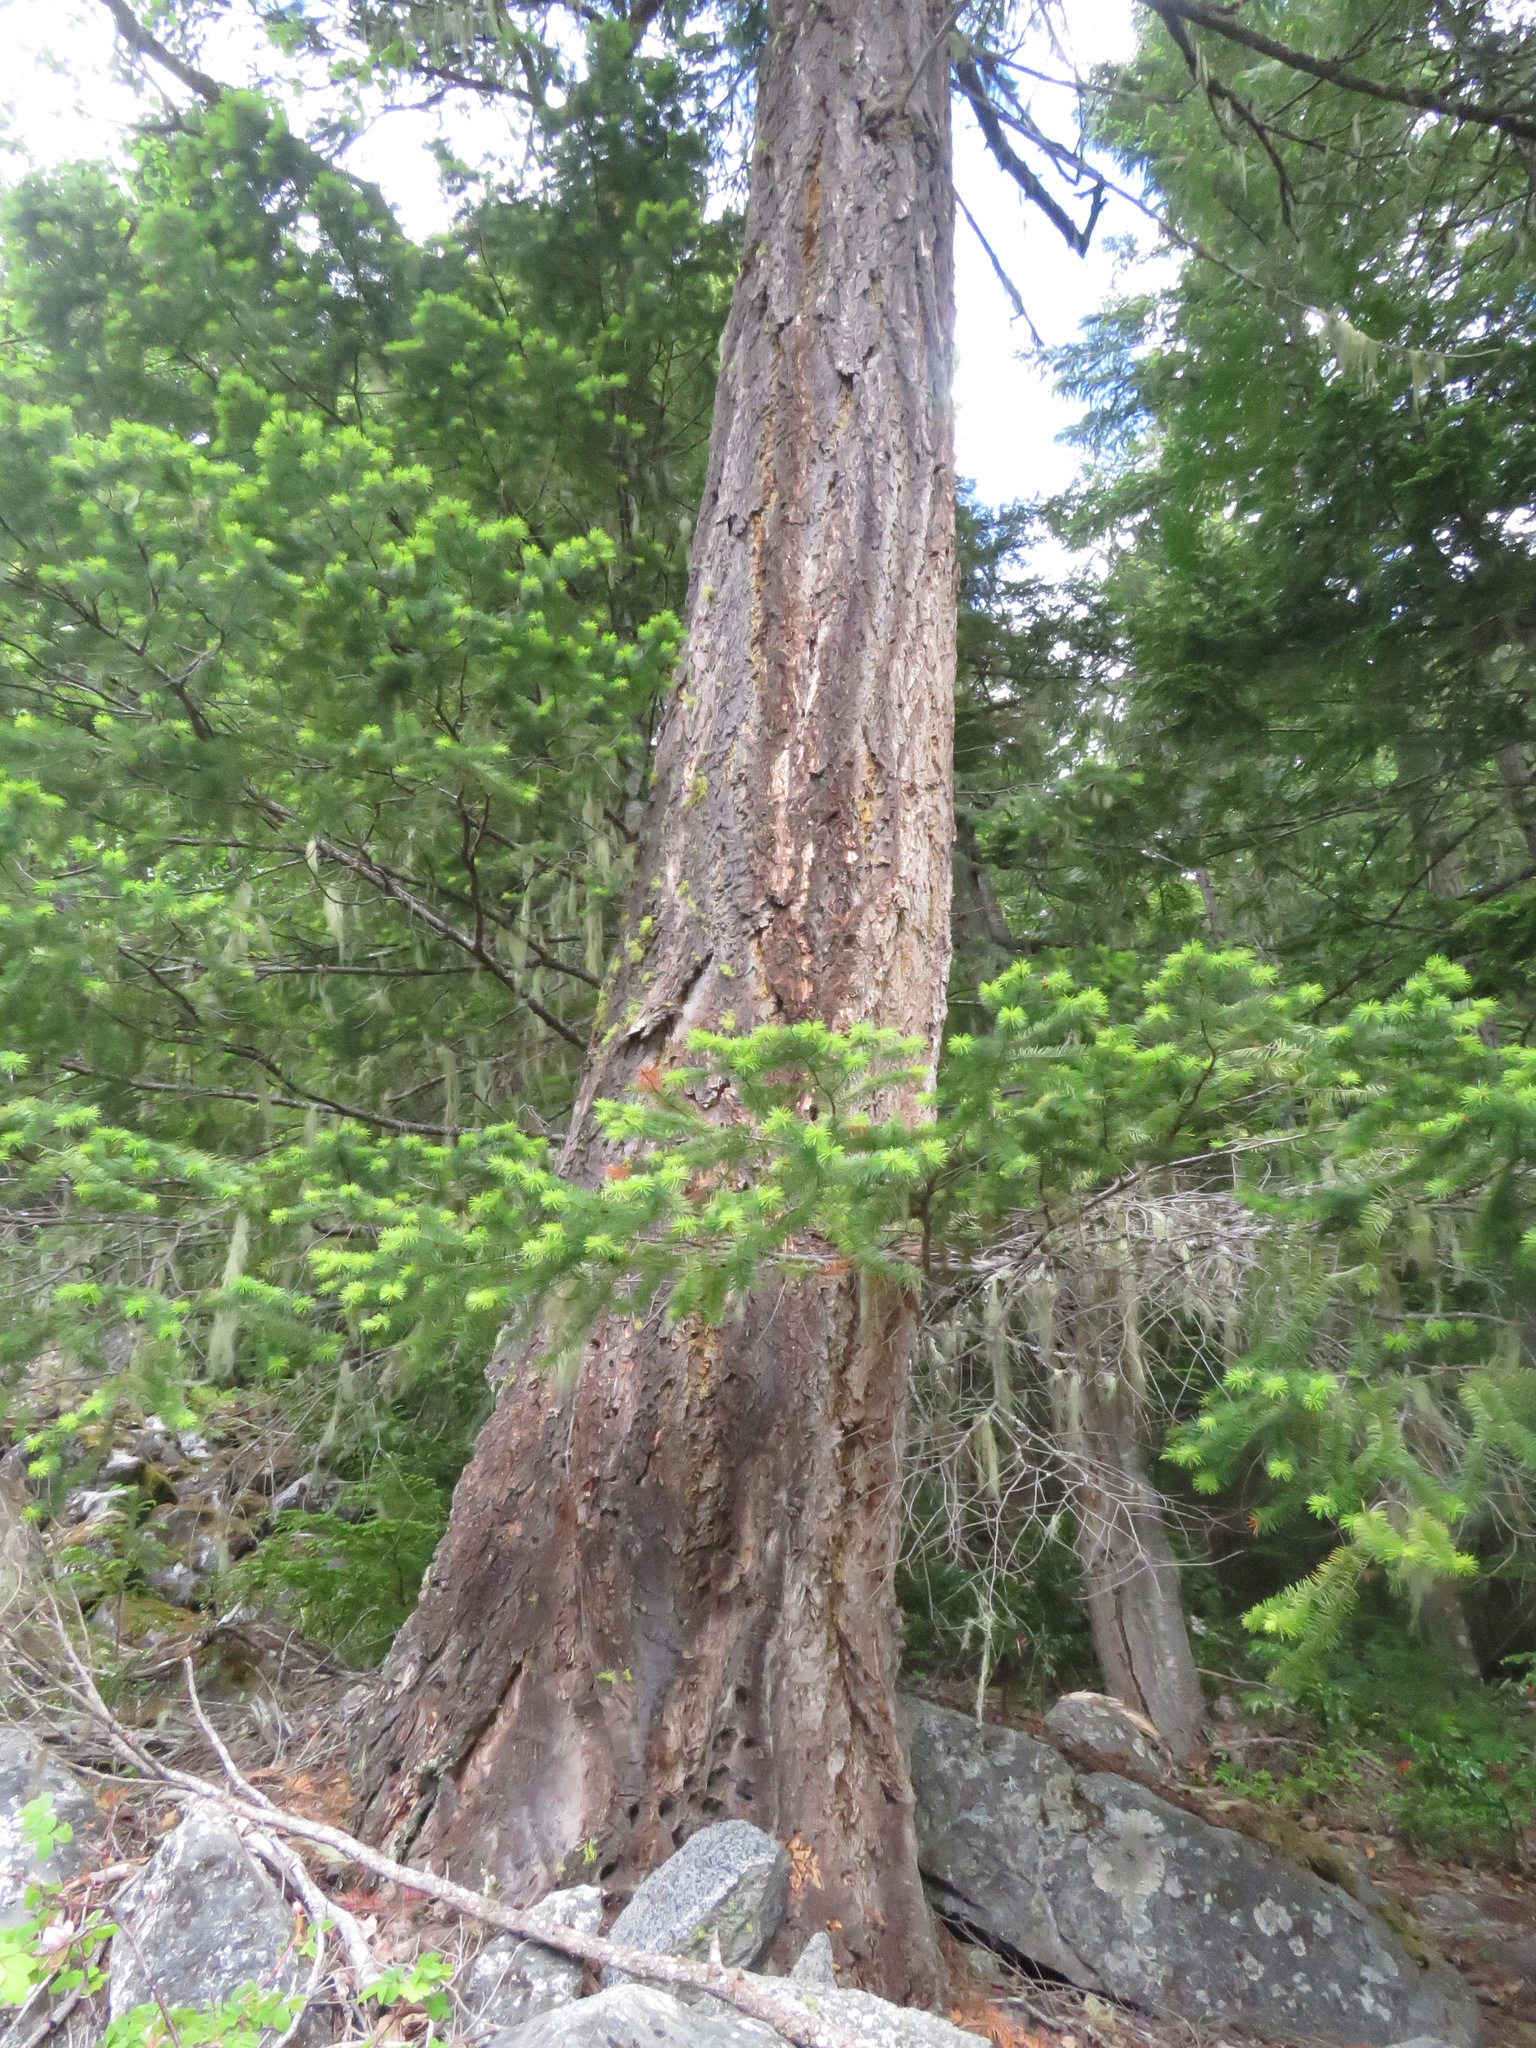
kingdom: Plantae
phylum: Tracheophyta
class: Pinopsida
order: Pinales
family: Pinaceae
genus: Pseudotsuga
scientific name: Pseudotsuga menziesii
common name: Douglas fir
